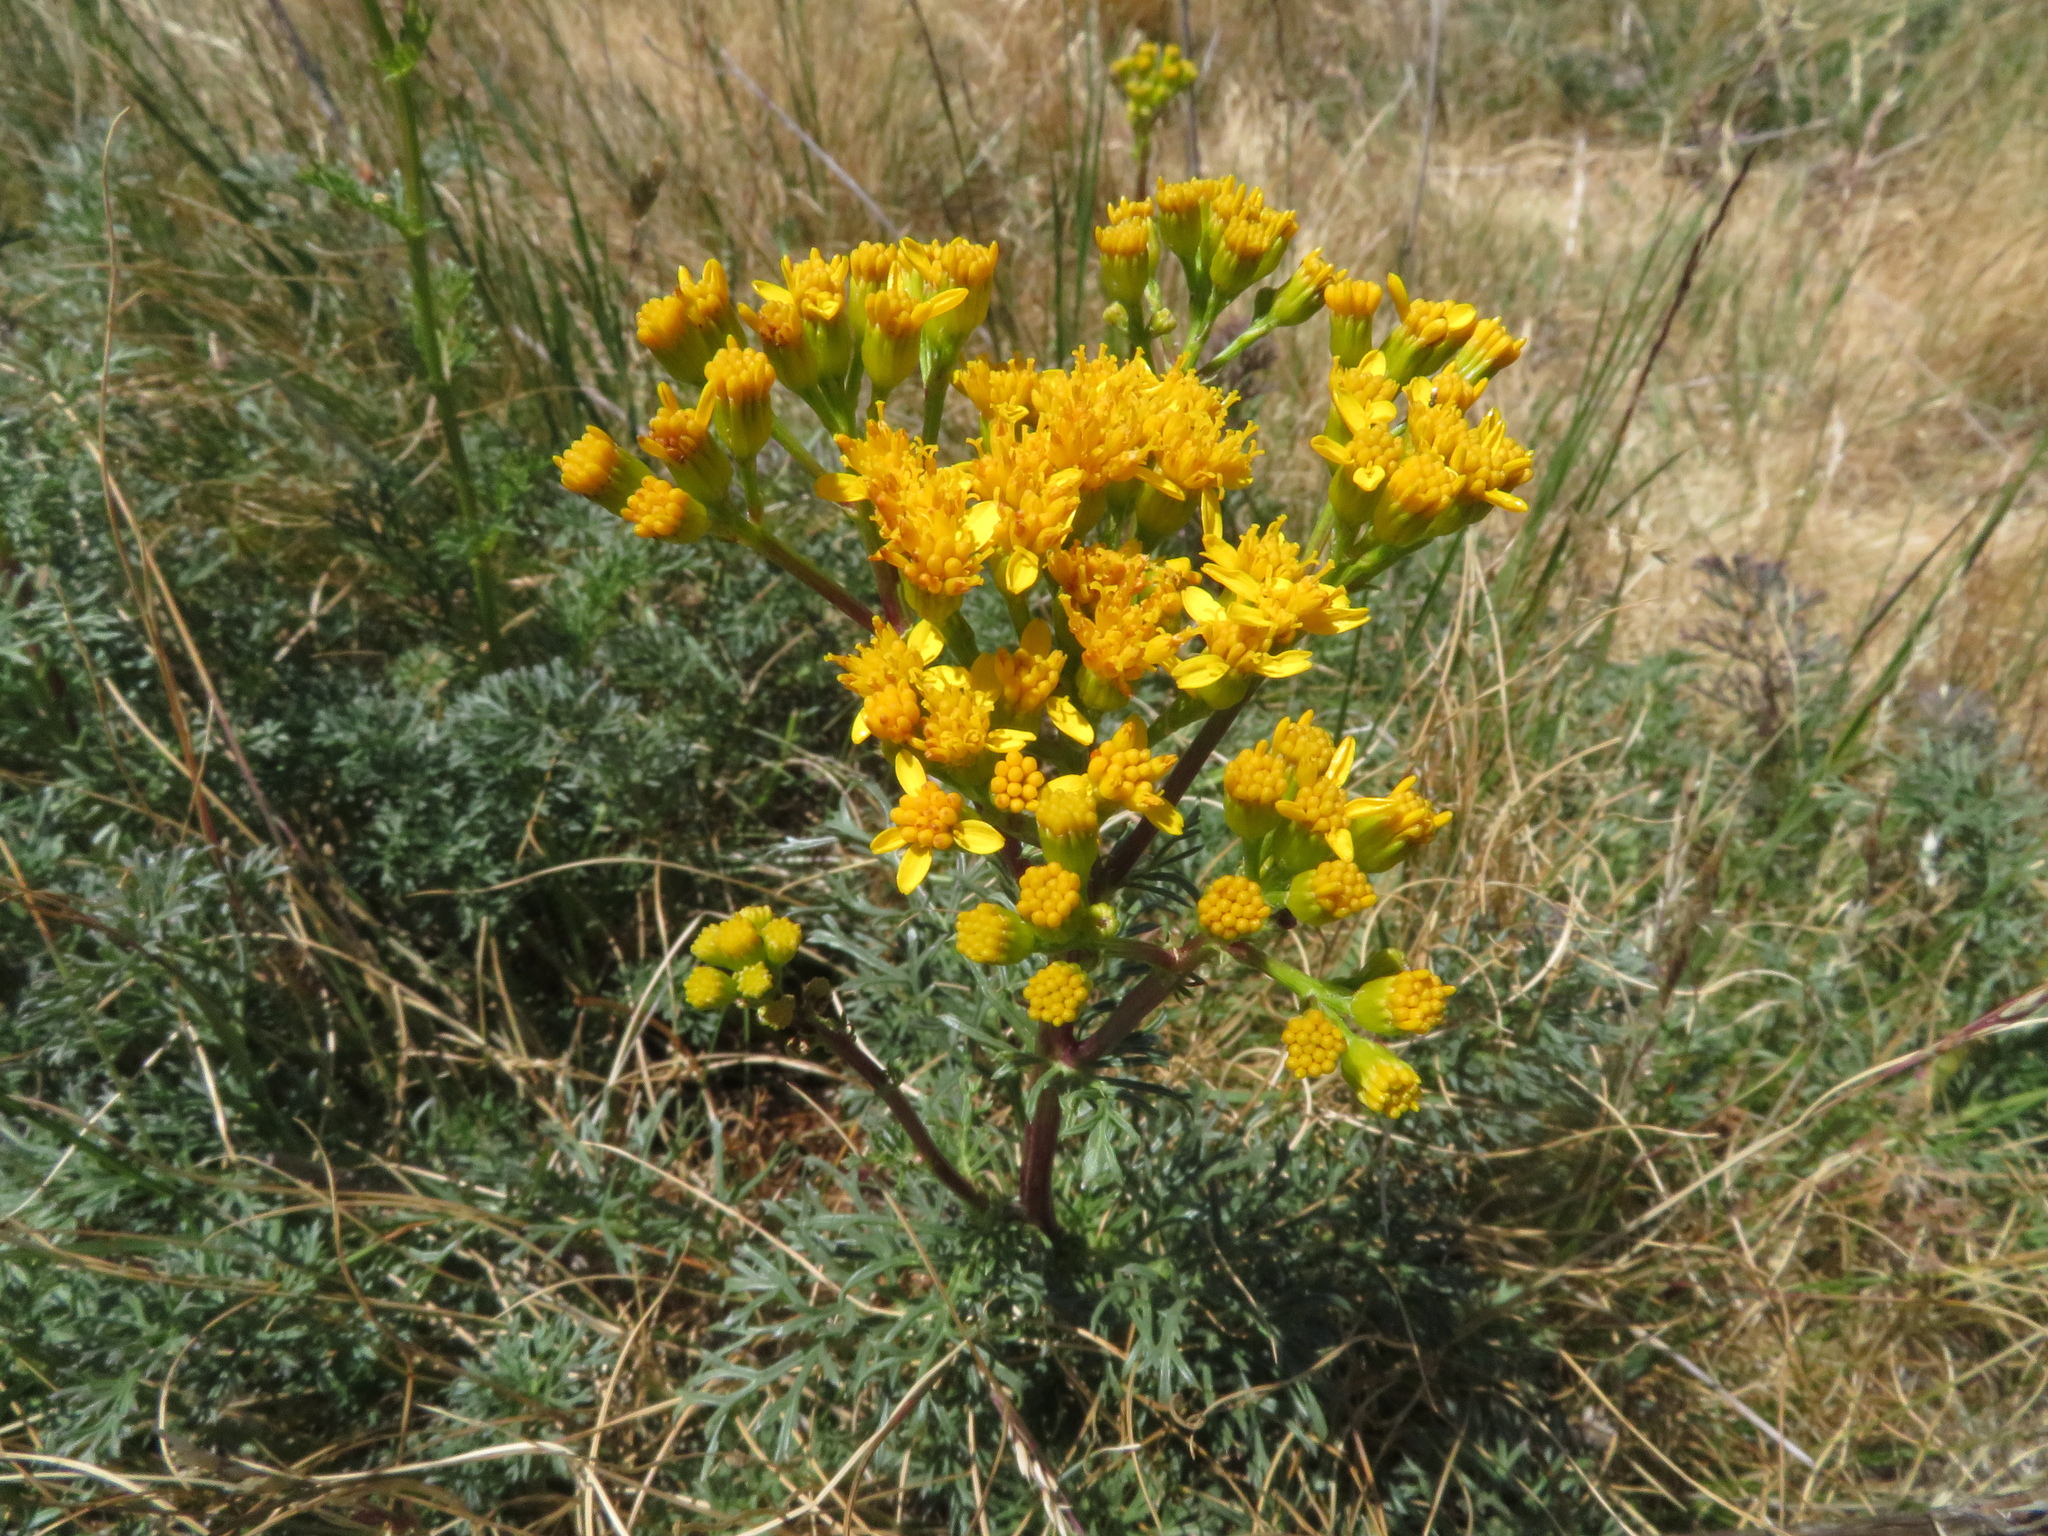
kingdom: Plantae
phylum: Tracheophyta
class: Magnoliopsida
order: Asterales
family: Asteraceae
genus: Jacobaea
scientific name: Jacobaea adonidifolia
